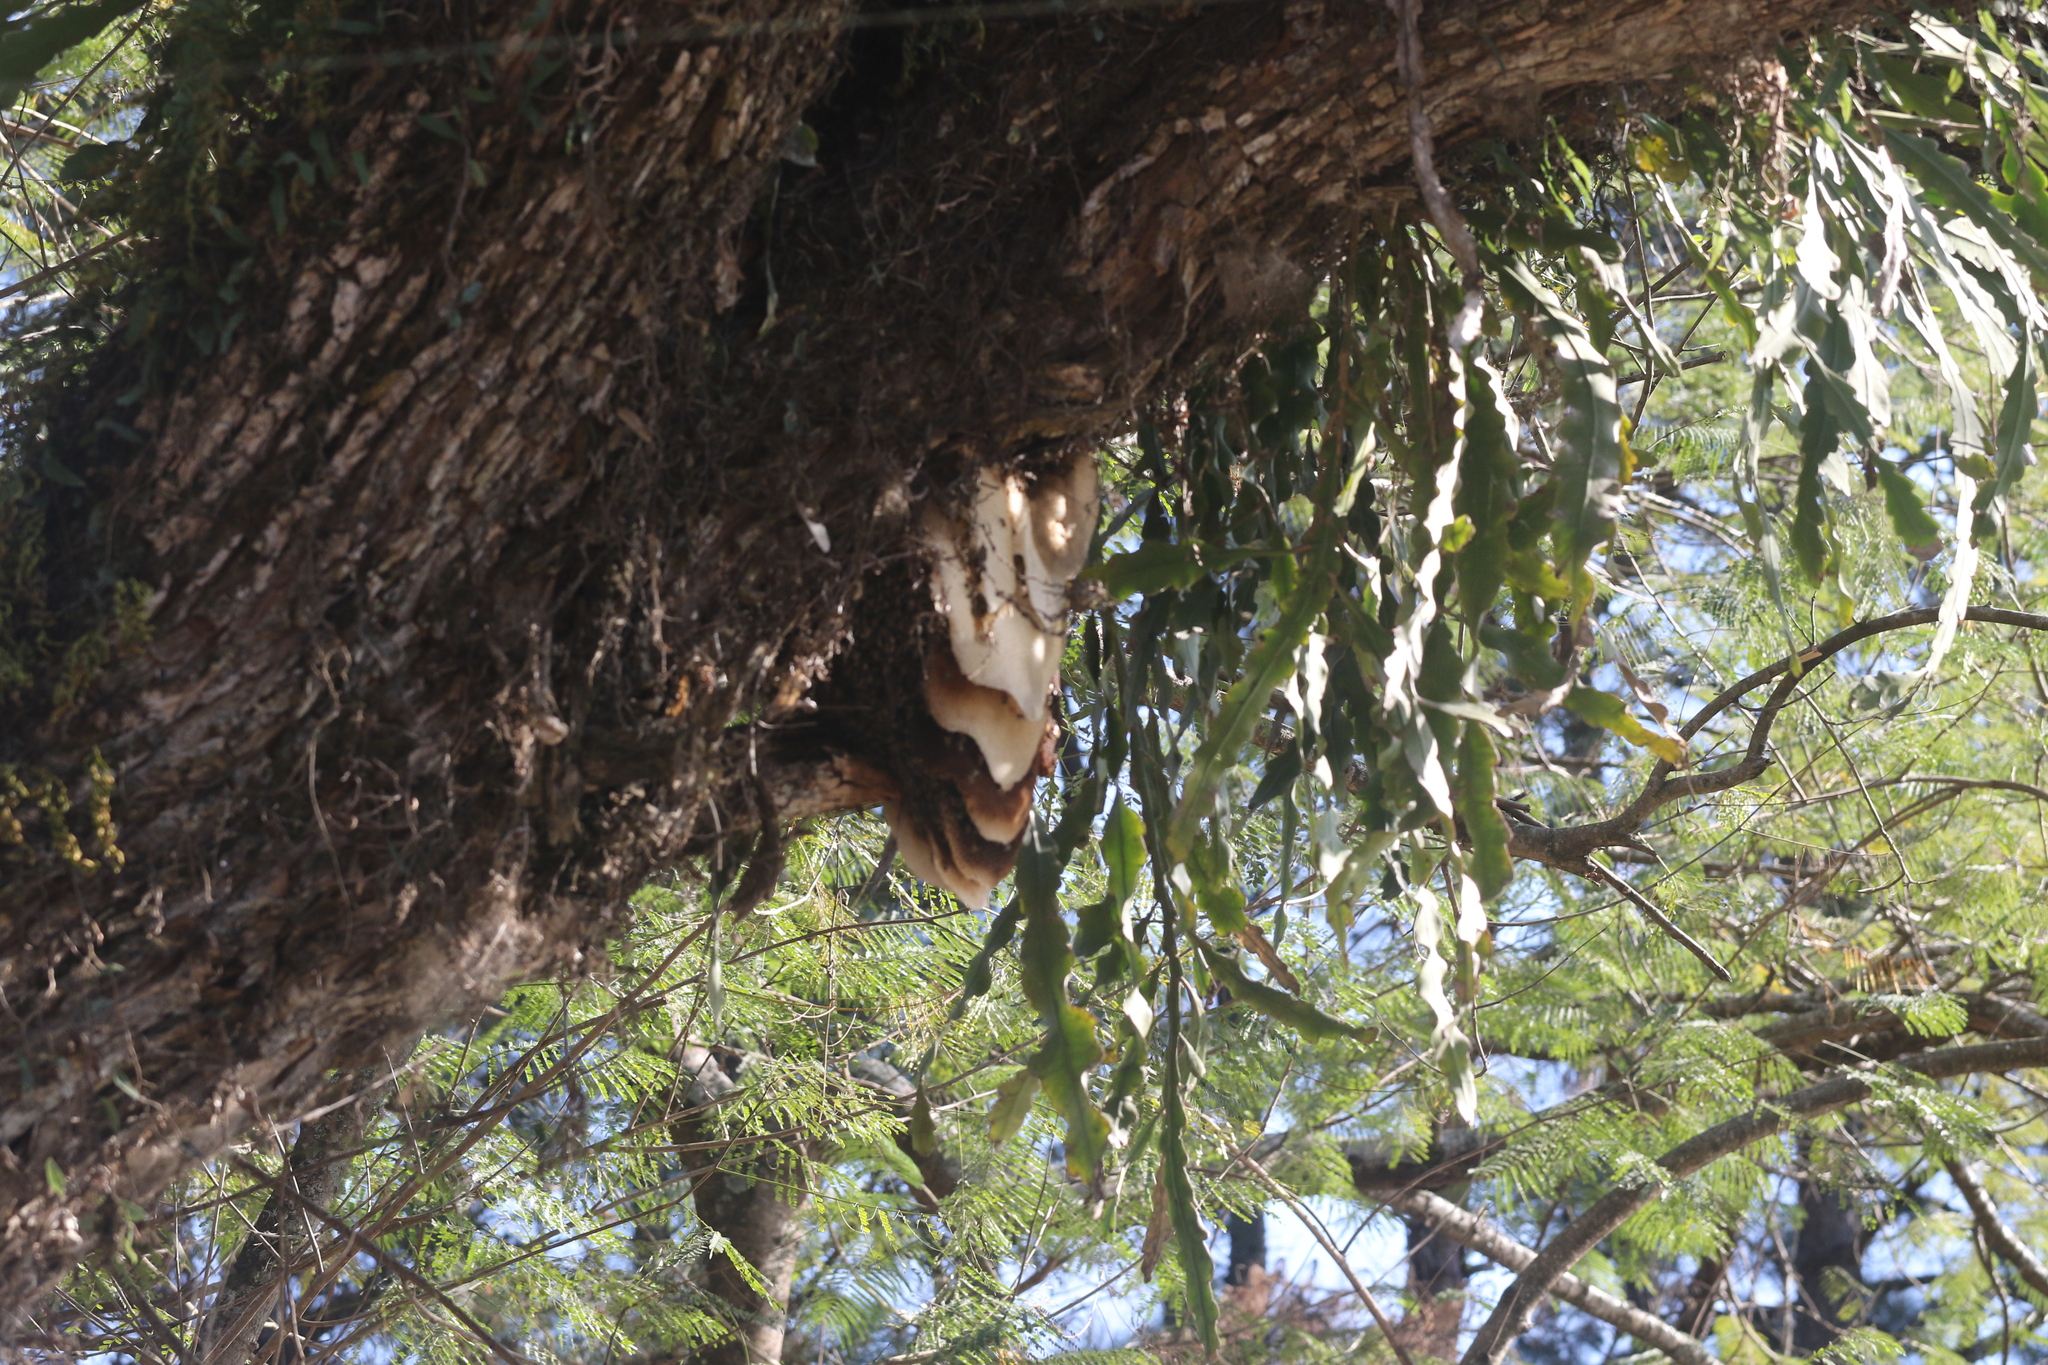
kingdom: Animalia
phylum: Arthropoda
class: Insecta
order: Hymenoptera
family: Apidae
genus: Apis
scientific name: Apis mellifera
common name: Honey bee
